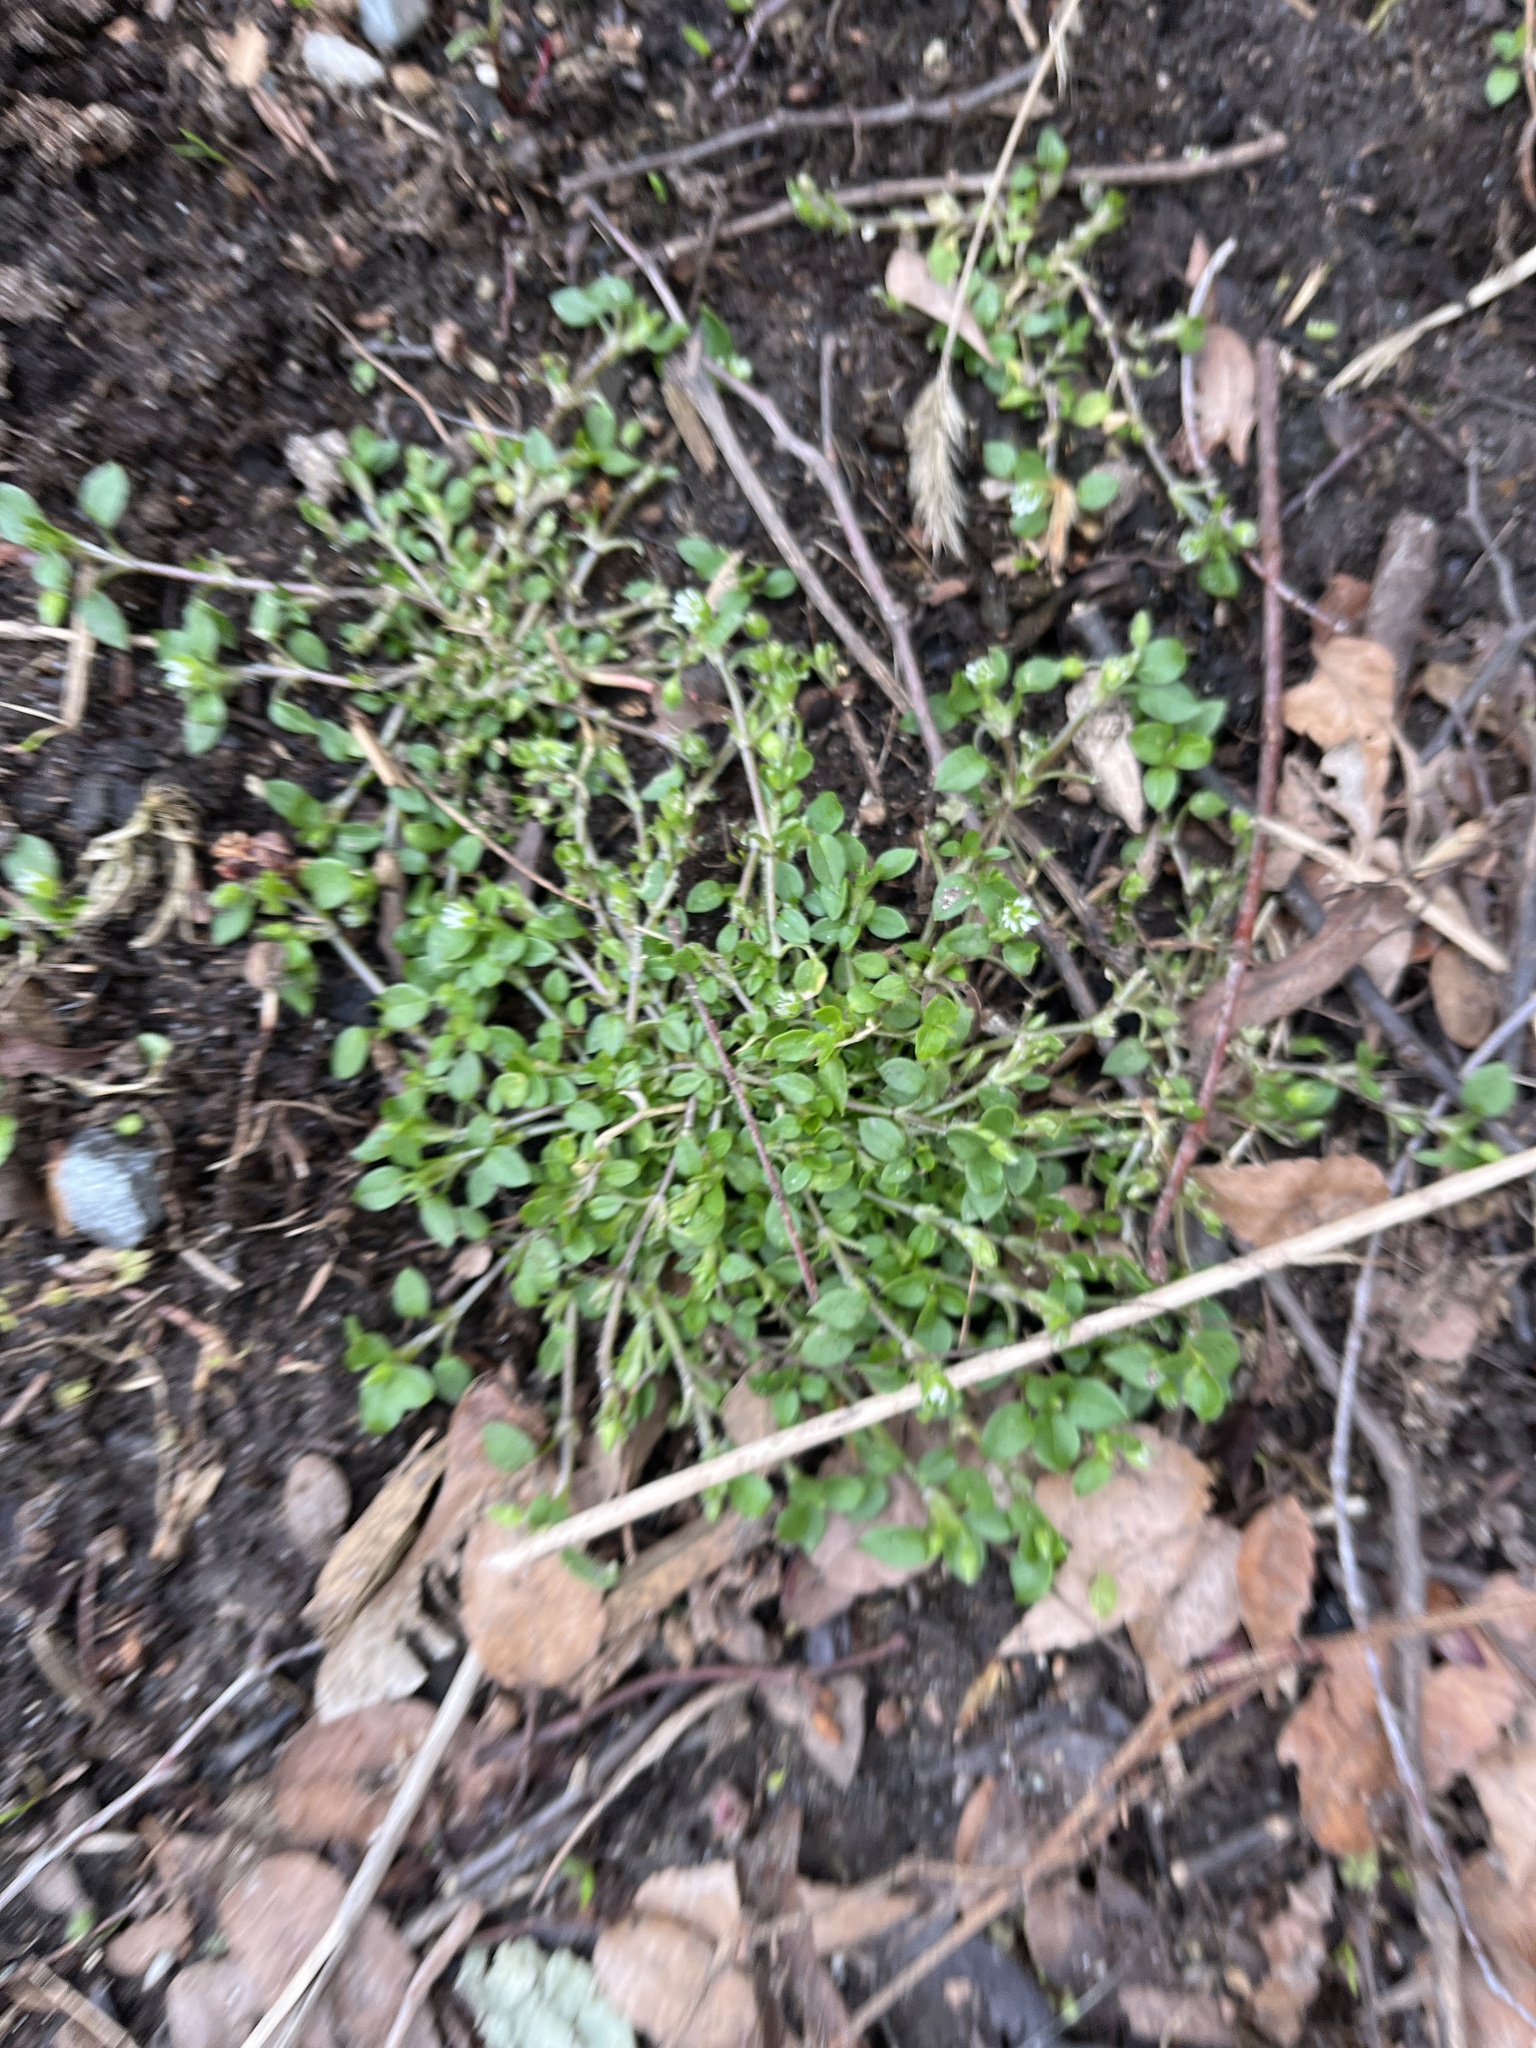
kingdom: Plantae
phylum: Tracheophyta
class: Magnoliopsida
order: Caryophyllales
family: Caryophyllaceae
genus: Stellaria
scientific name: Stellaria media
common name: Common chickweed
